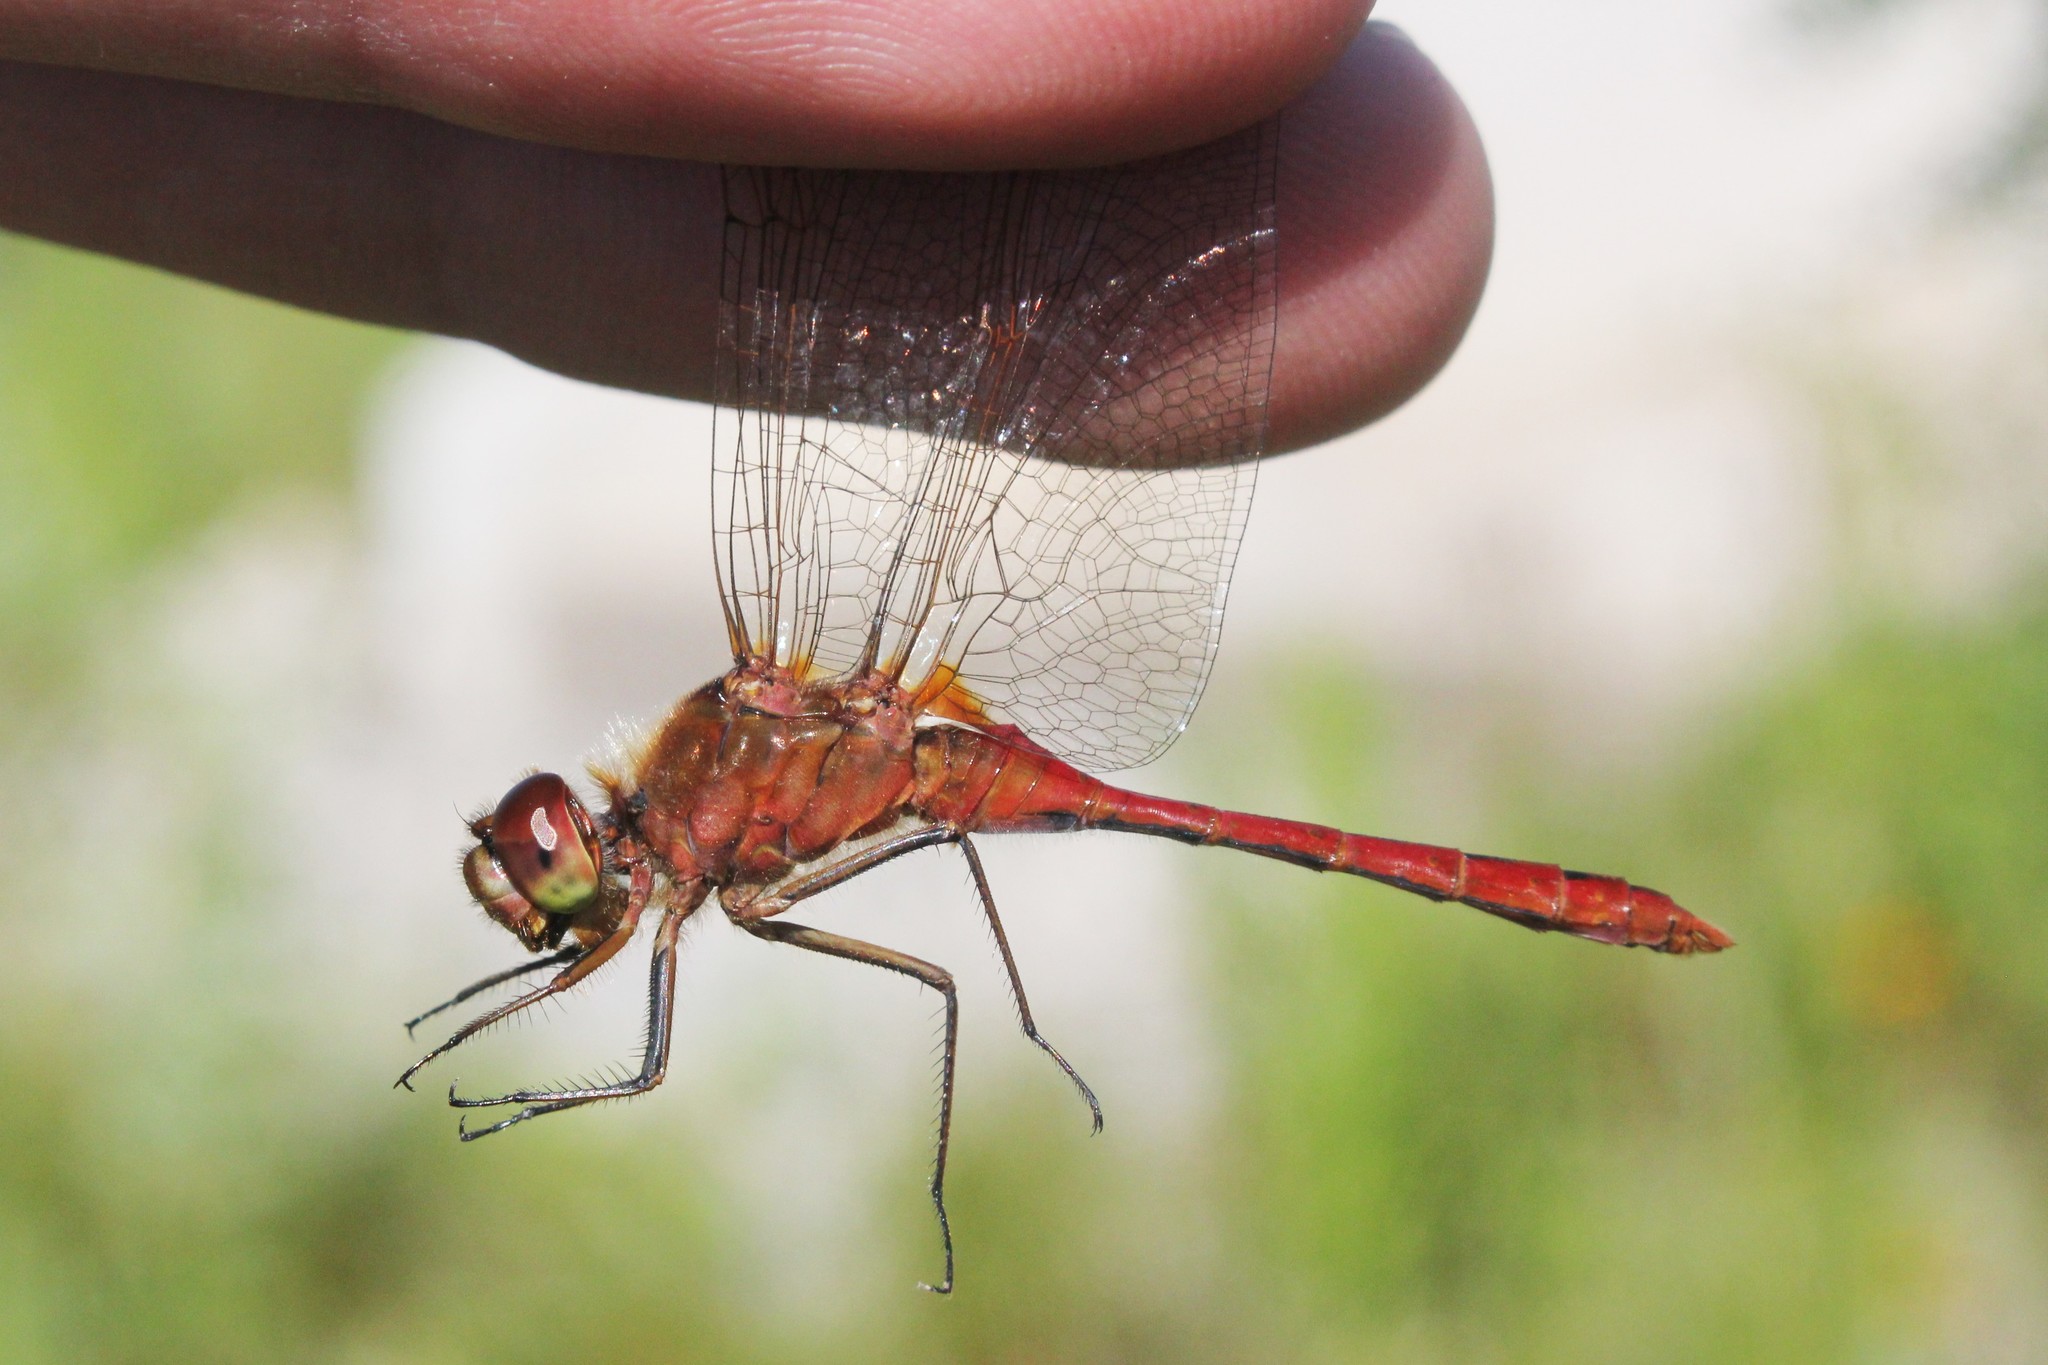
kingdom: Animalia
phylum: Arthropoda
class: Insecta
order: Odonata
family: Libellulidae
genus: Sympetrum
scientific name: Sympetrum costiferum
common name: Saffron-winged meadowhawk
